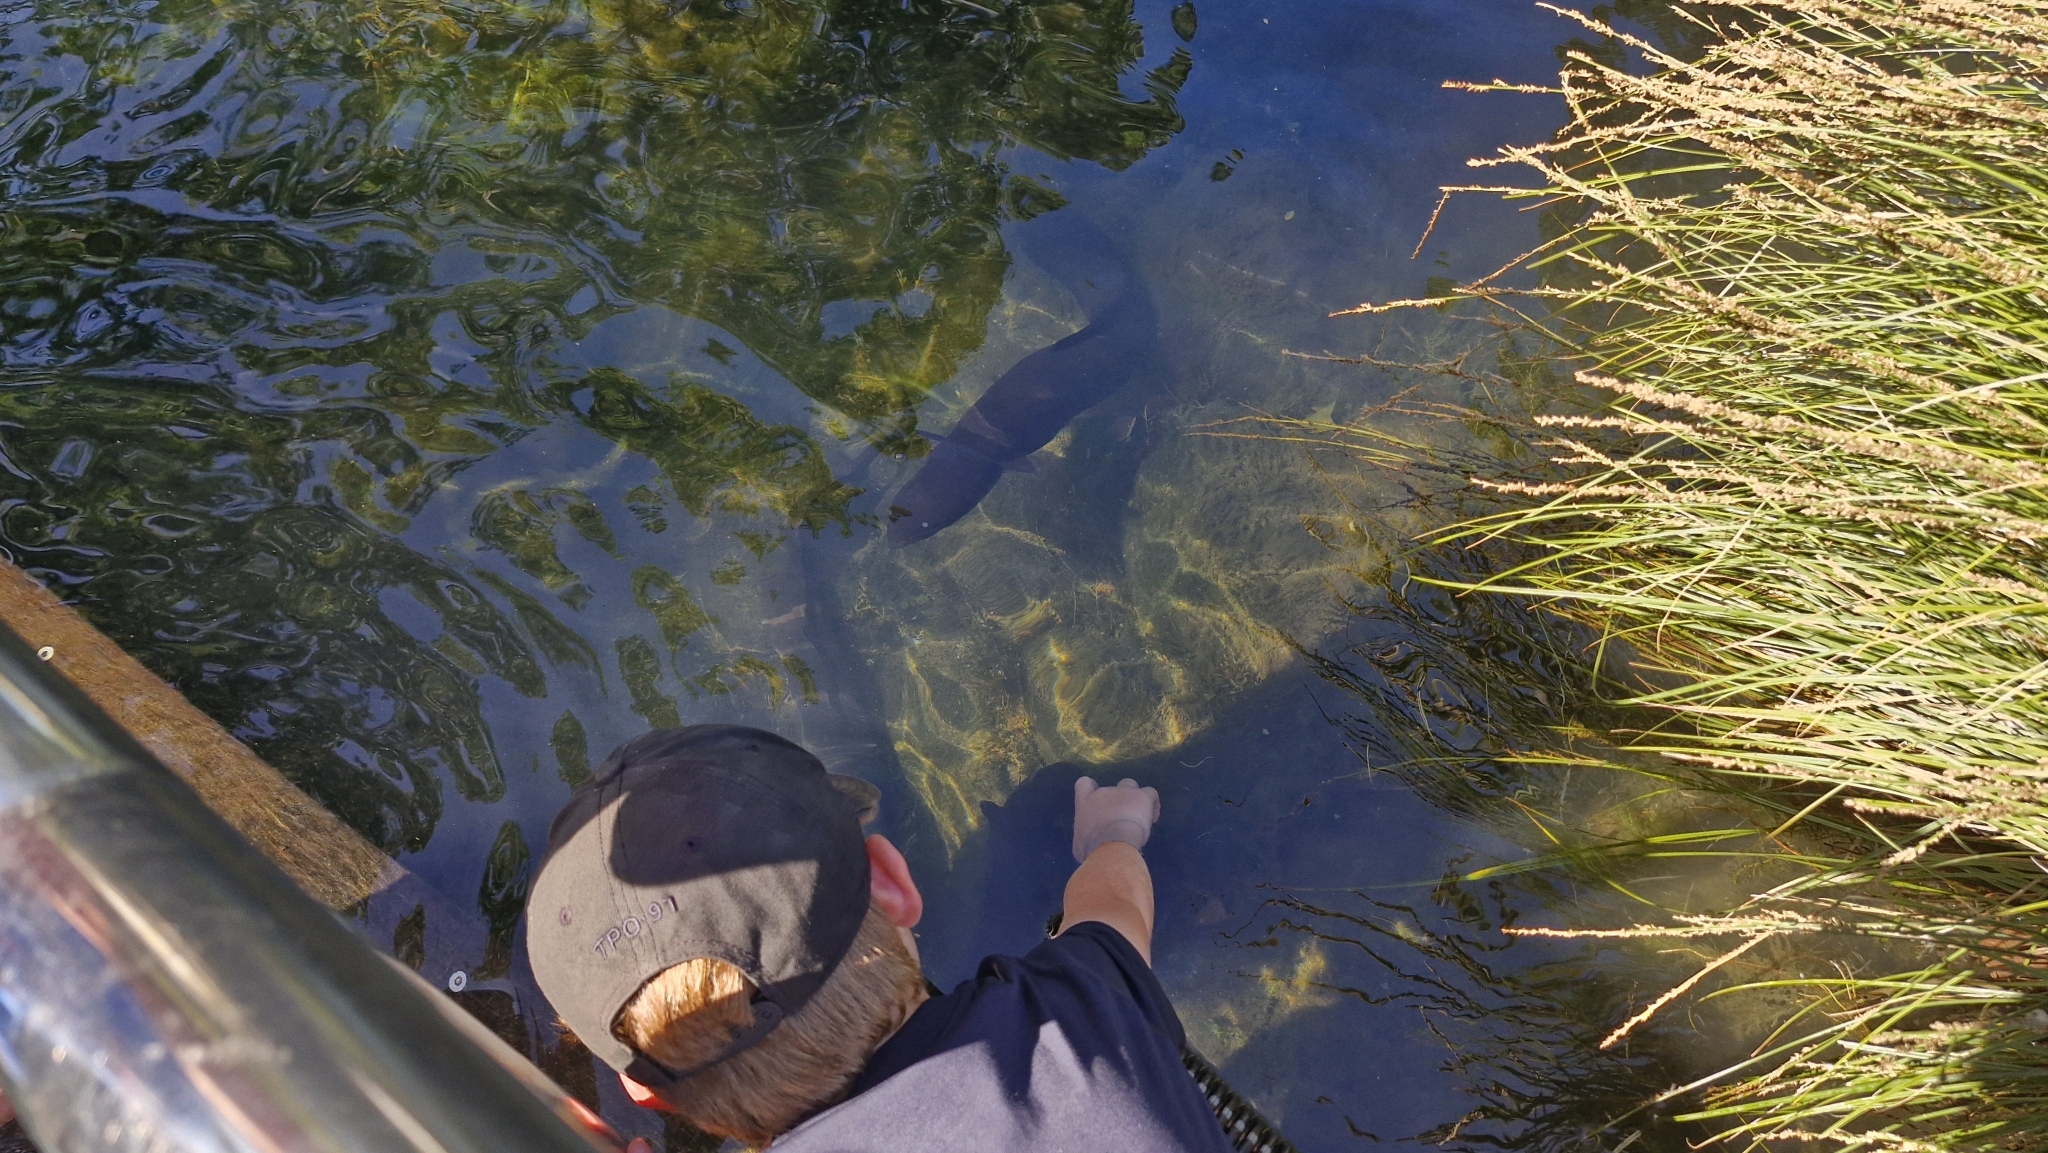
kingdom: Animalia
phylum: Chordata
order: Anguilliformes
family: Anguillidae
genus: Anguilla
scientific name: Anguilla dieffenbachii
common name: New zealand longfin eel
